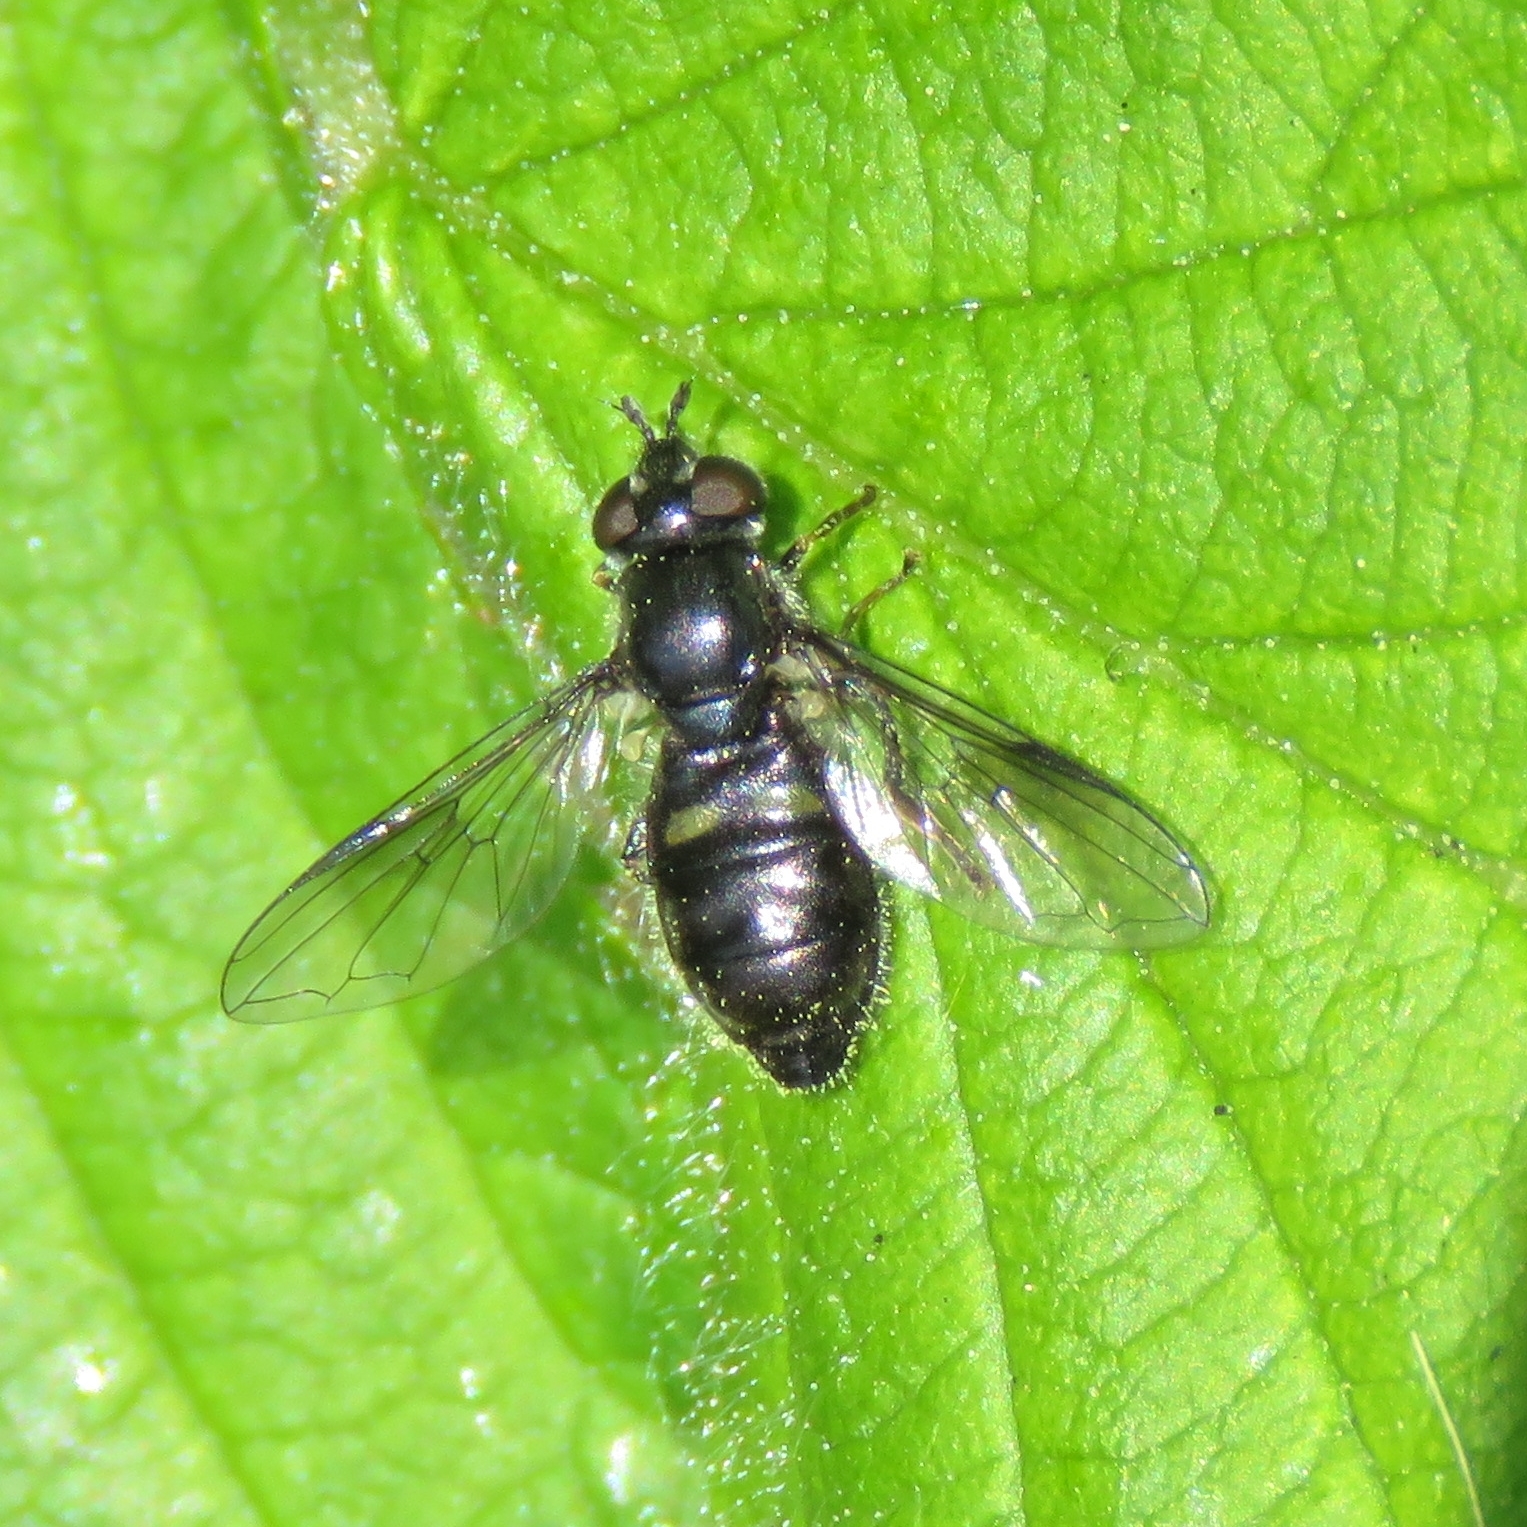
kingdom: Animalia
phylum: Arthropoda
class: Insecta
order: Diptera
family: Syrphidae
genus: Pipiza
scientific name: Pipiza
